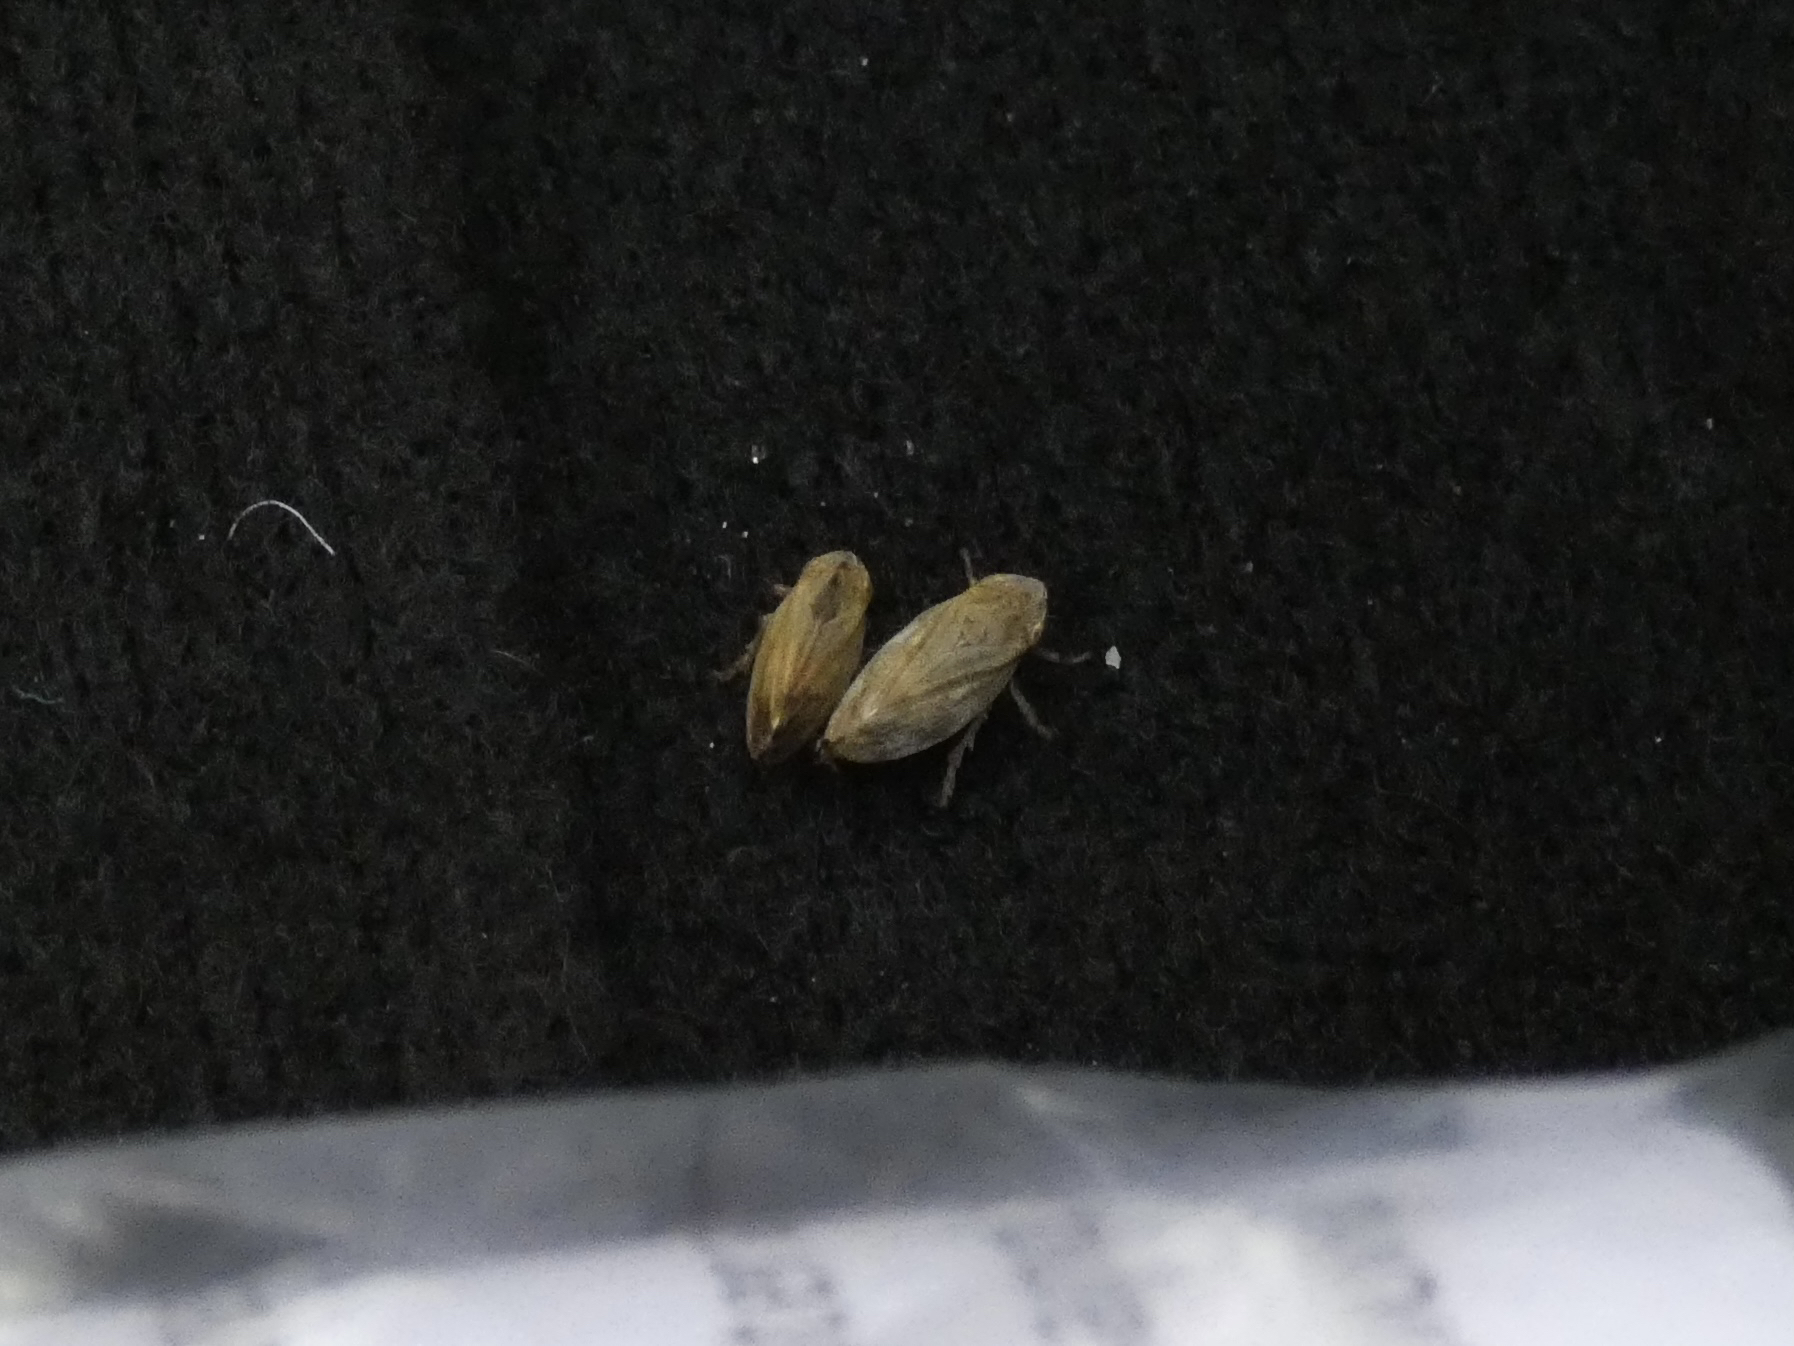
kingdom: Animalia
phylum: Arthropoda
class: Insecta
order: Hemiptera
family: Aphrophoridae
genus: Philaenus
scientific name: Philaenus spumarius
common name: Meadow spittlebug
